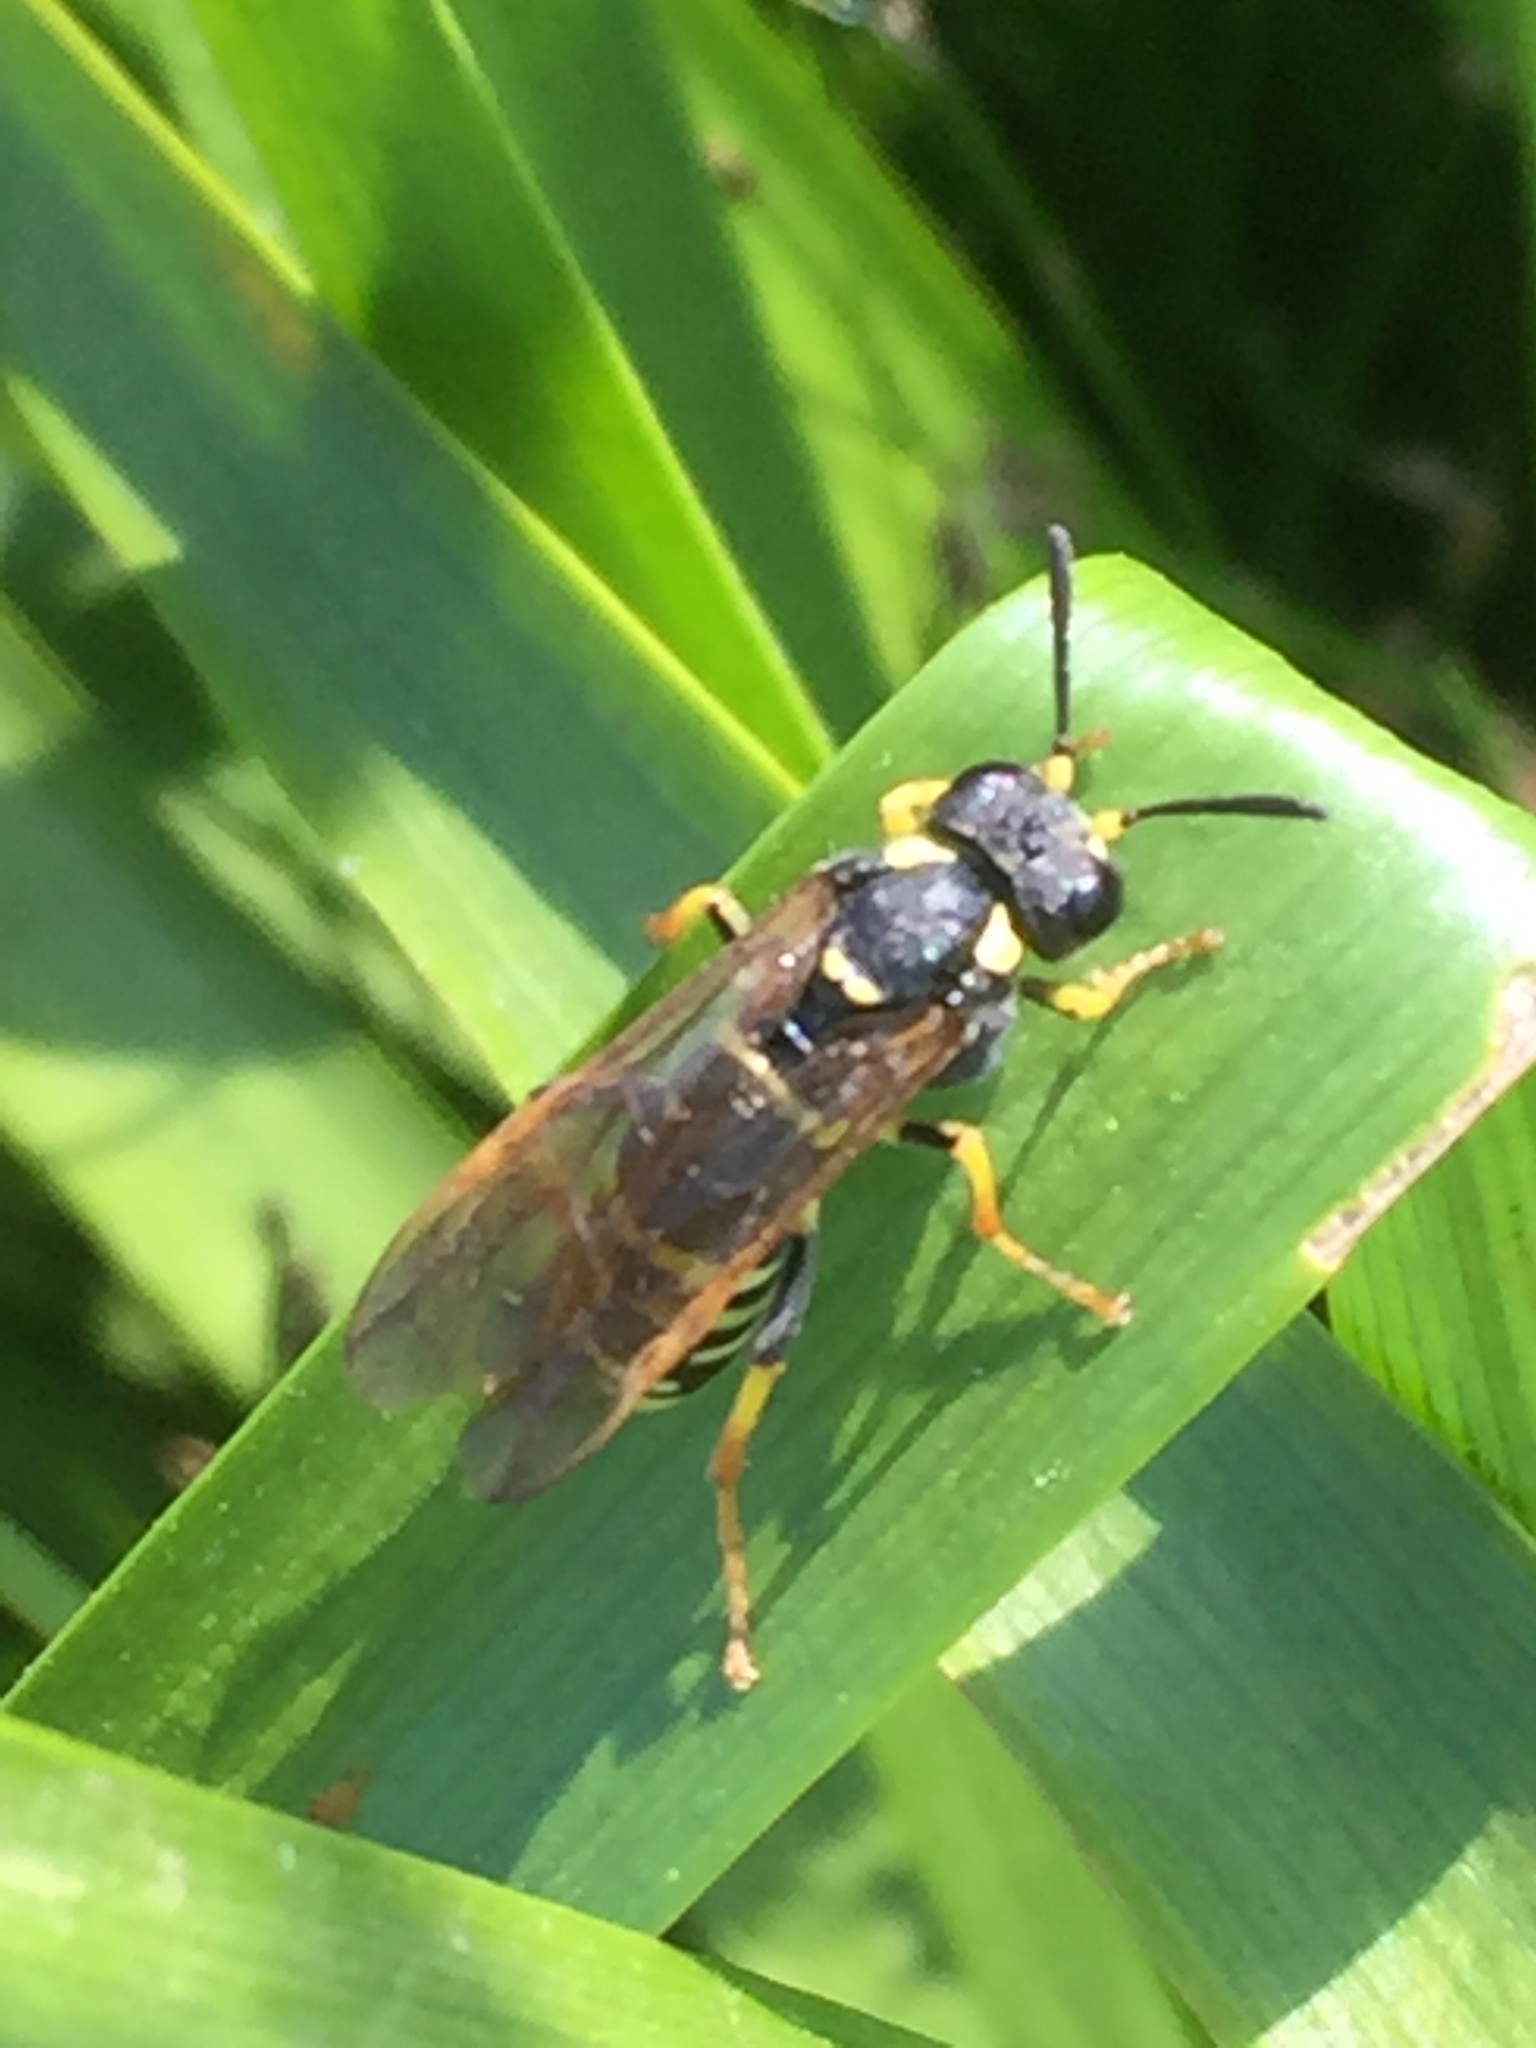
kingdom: Animalia
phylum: Arthropoda
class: Insecta
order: Hymenoptera
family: Tenthredinidae
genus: Tenthredo
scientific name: Tenthredo omissa
